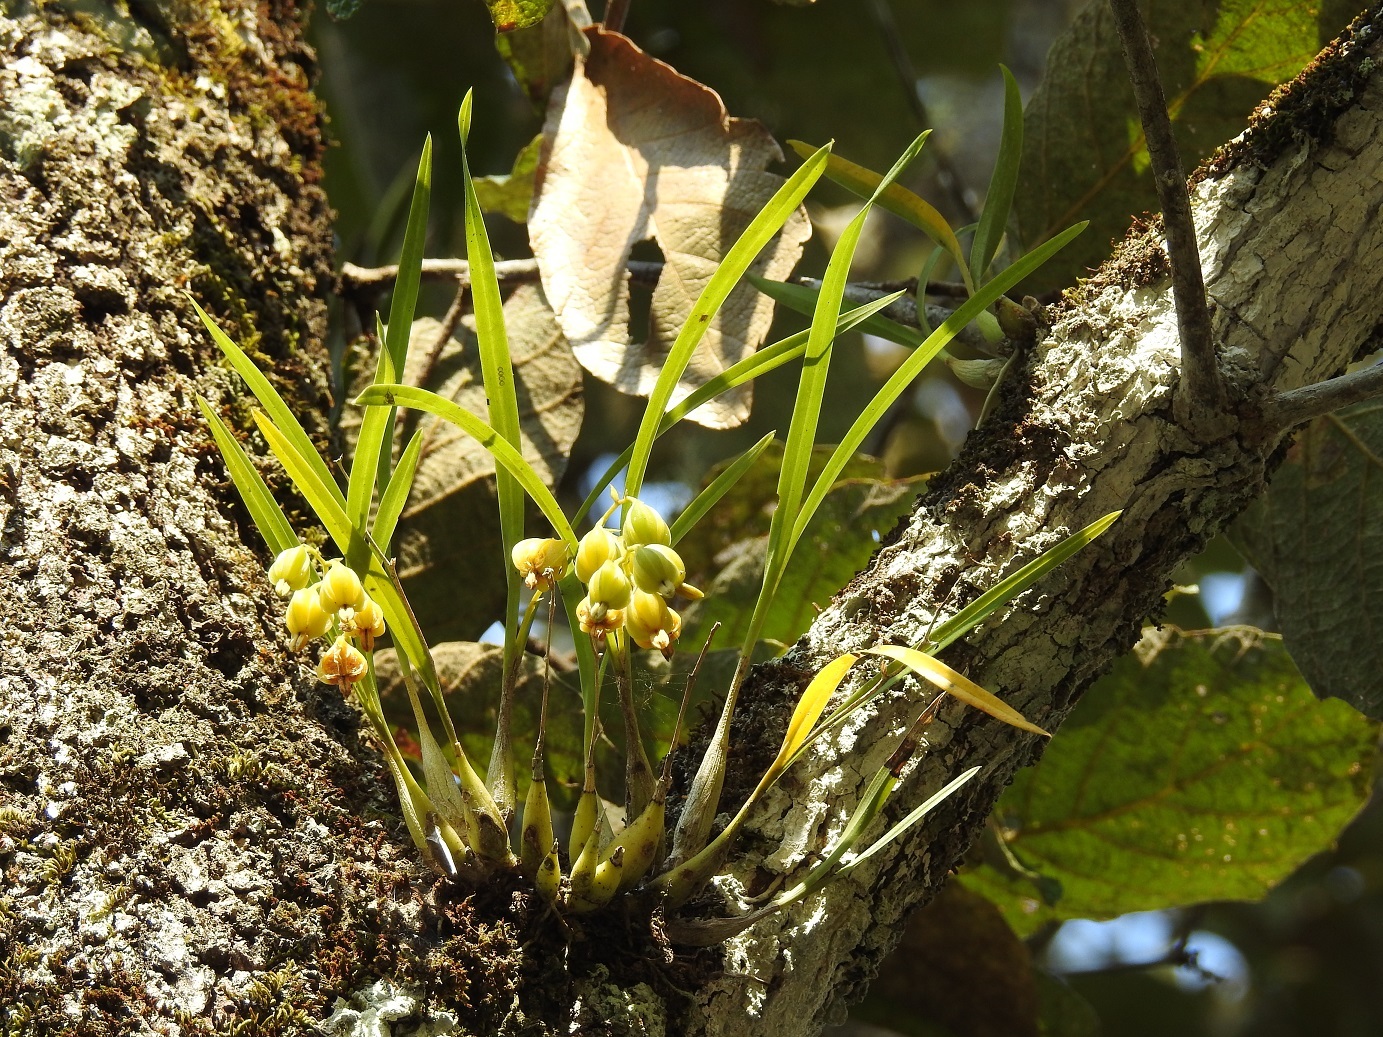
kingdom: Plantae
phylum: Tracheophyta
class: Liliopsida
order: Asparagales
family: Orchidaceae
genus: Prosthechea
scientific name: Prosthechea ochracea
